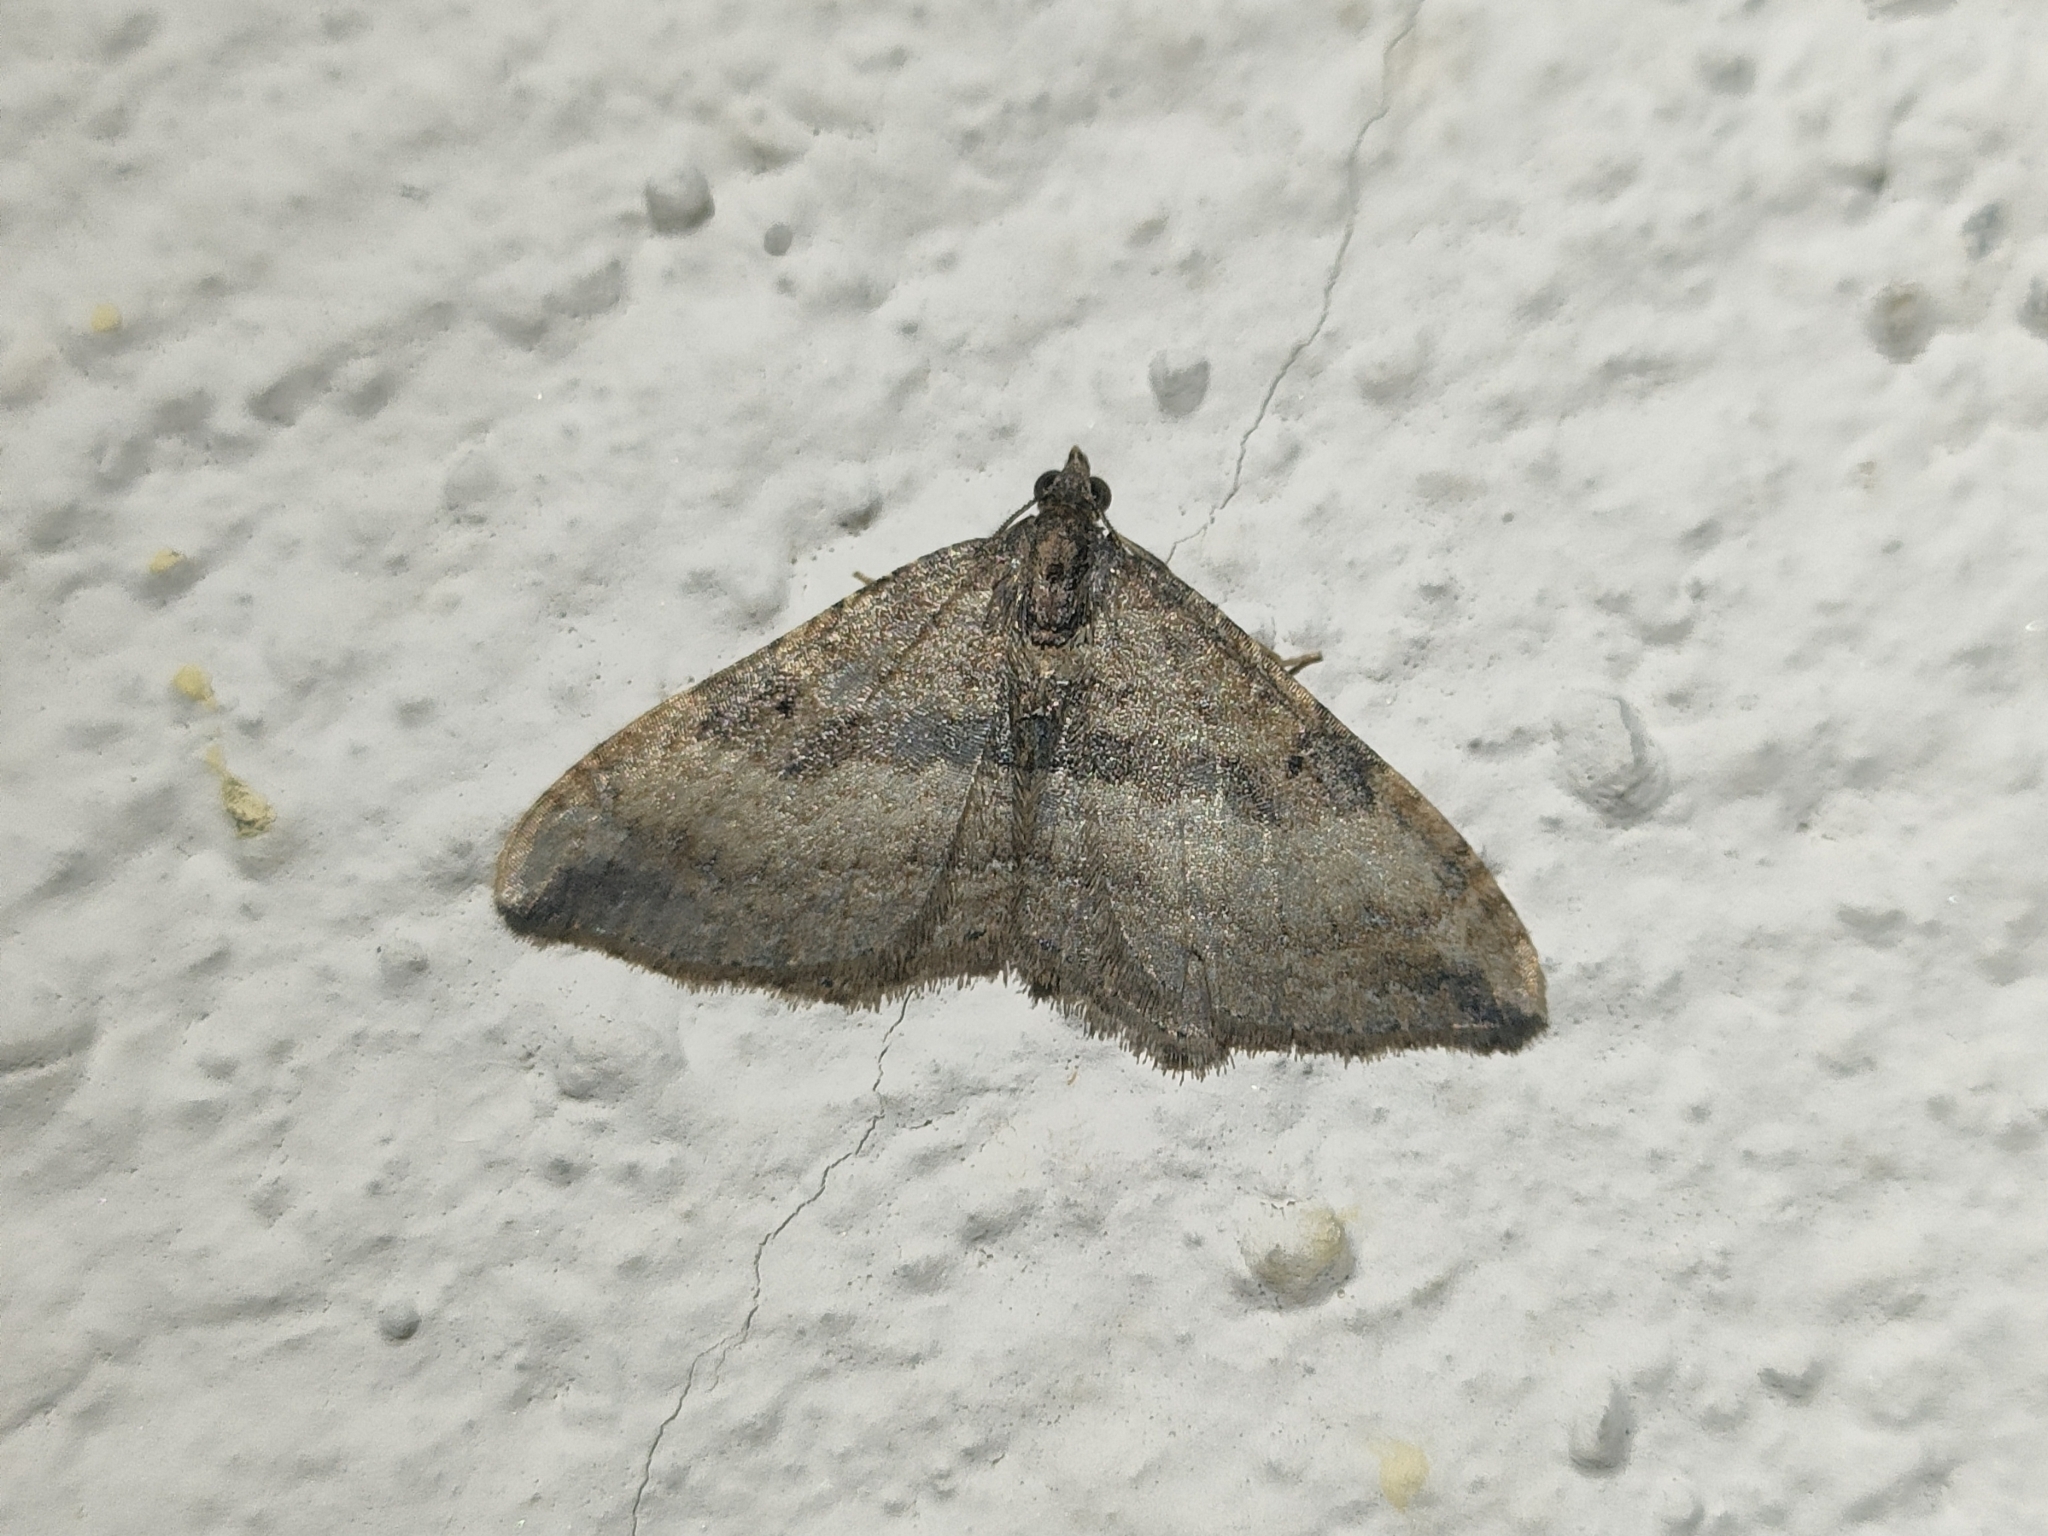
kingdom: Animalia
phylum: Arthropoda
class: Insecta
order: Lepidoptera
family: Geometridae
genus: Orthonama
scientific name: Orthonama obstipata
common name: The gem
